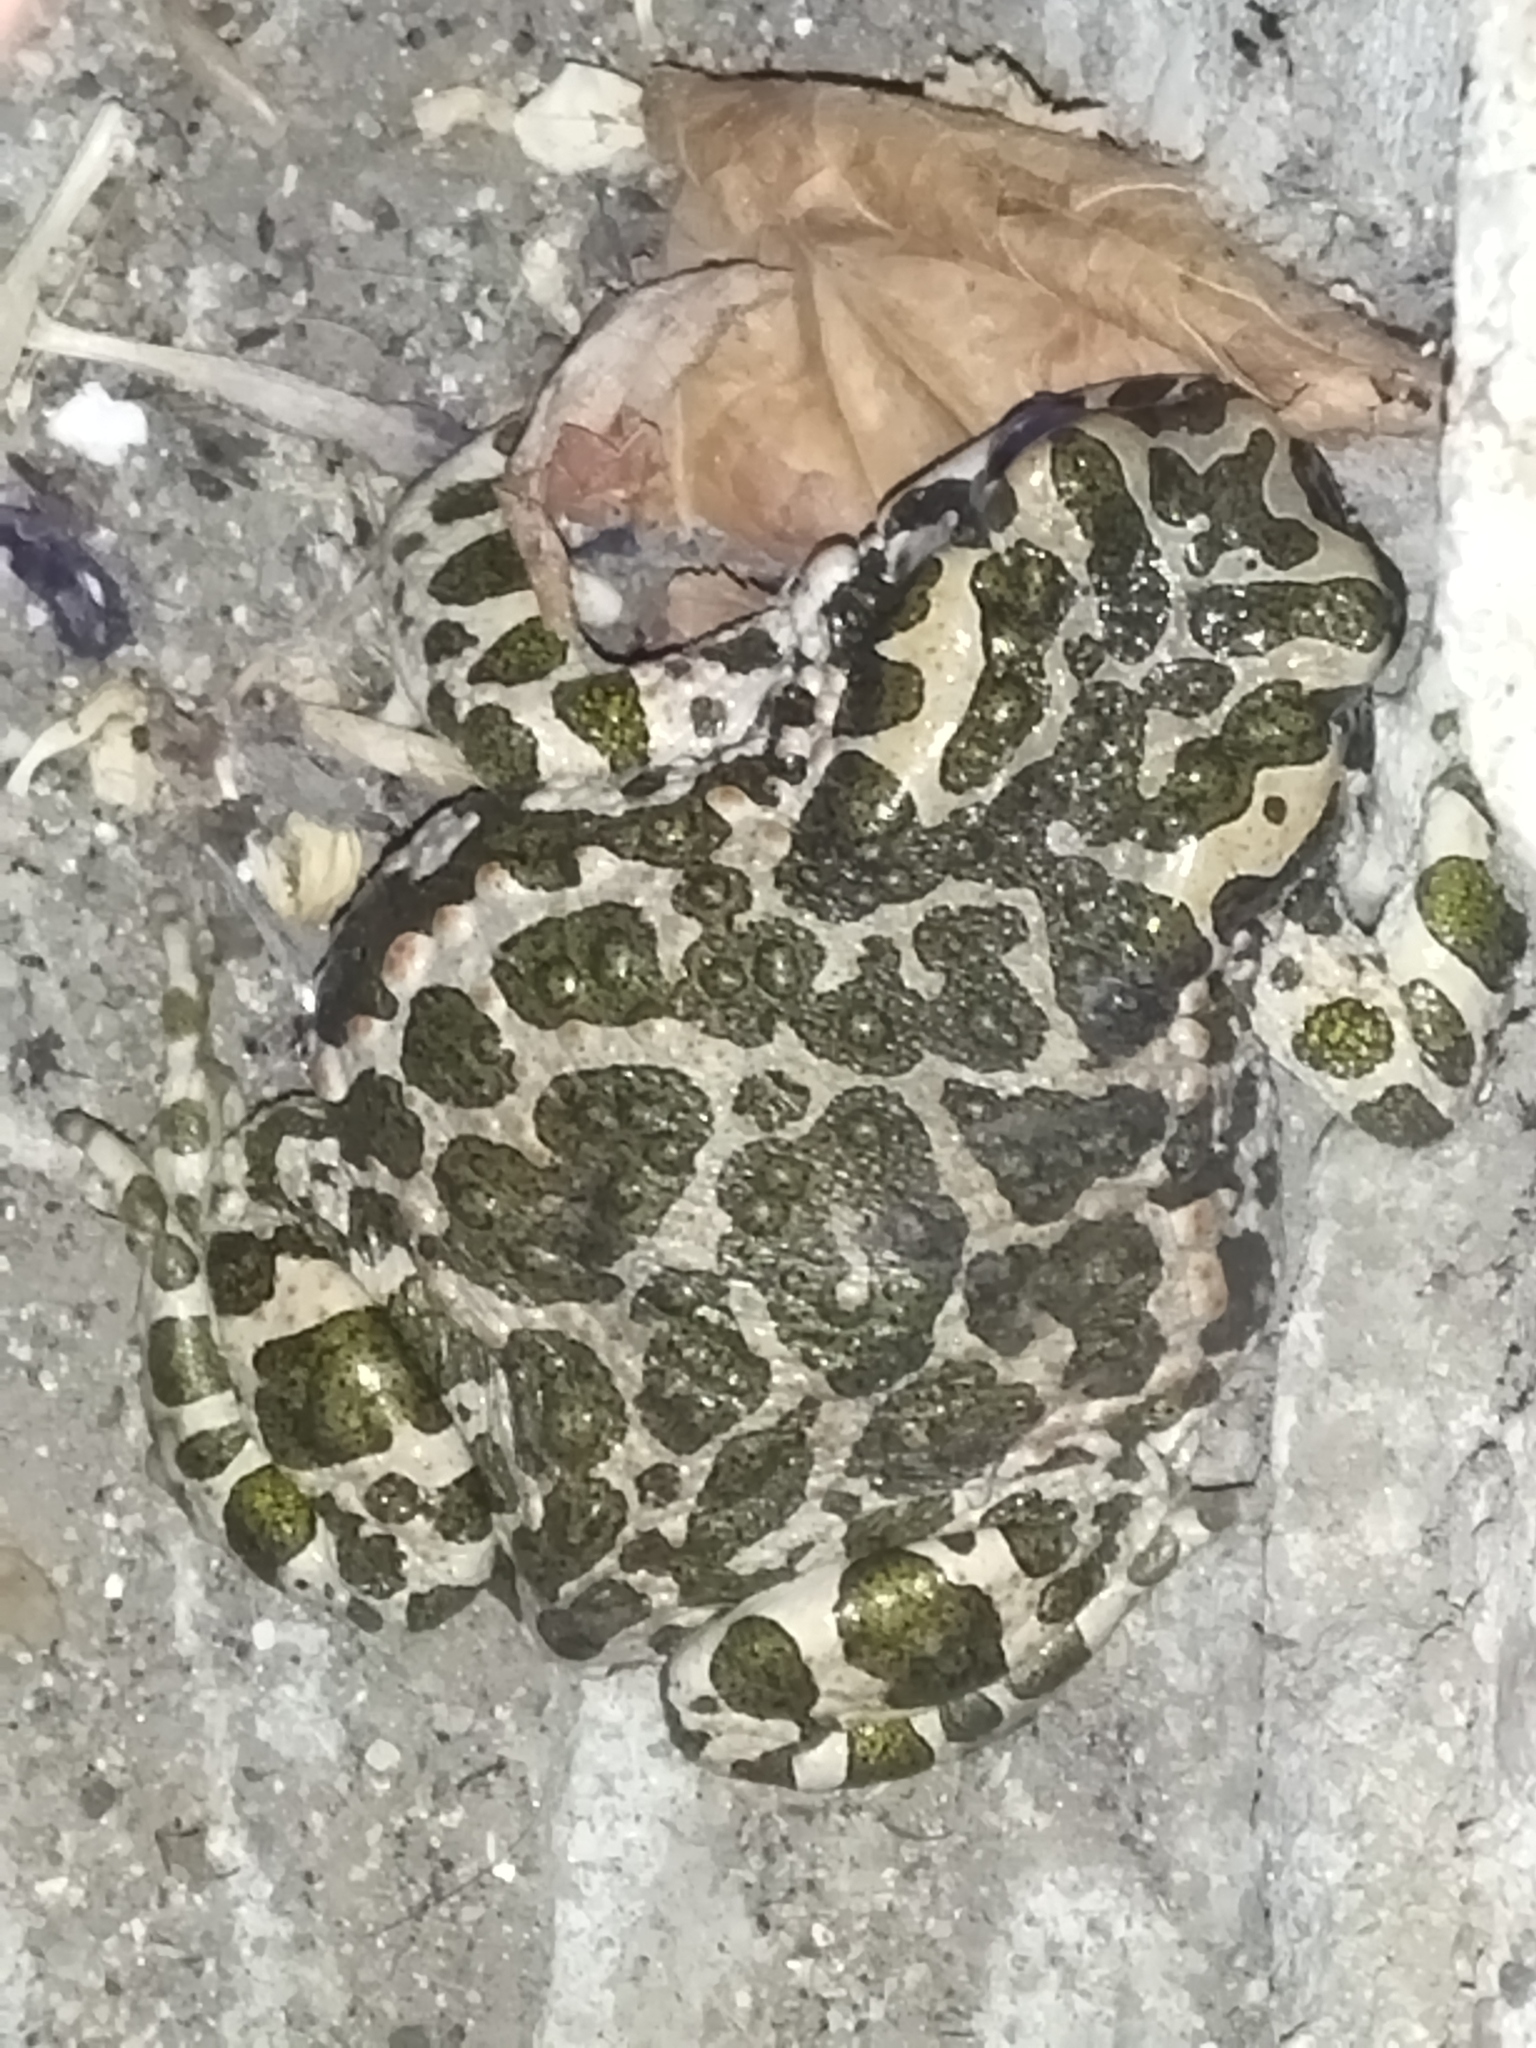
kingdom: Animalia
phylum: Chordata
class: Amphibia
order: Anura
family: Bufonidae
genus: Bufotes
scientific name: Bufotes viridis
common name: European green toad
